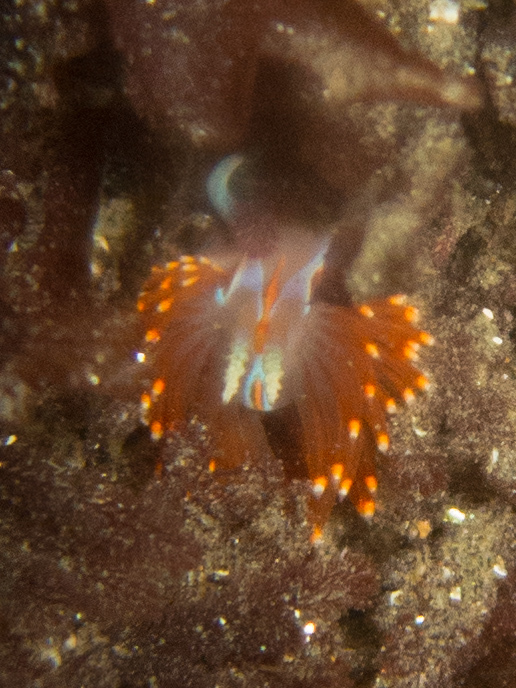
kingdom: Animalia
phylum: Mollusca
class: Gastropoda
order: Nudibranchia
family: Myrrhinidae
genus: Hermissenda
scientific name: Hermissenda opalescens
